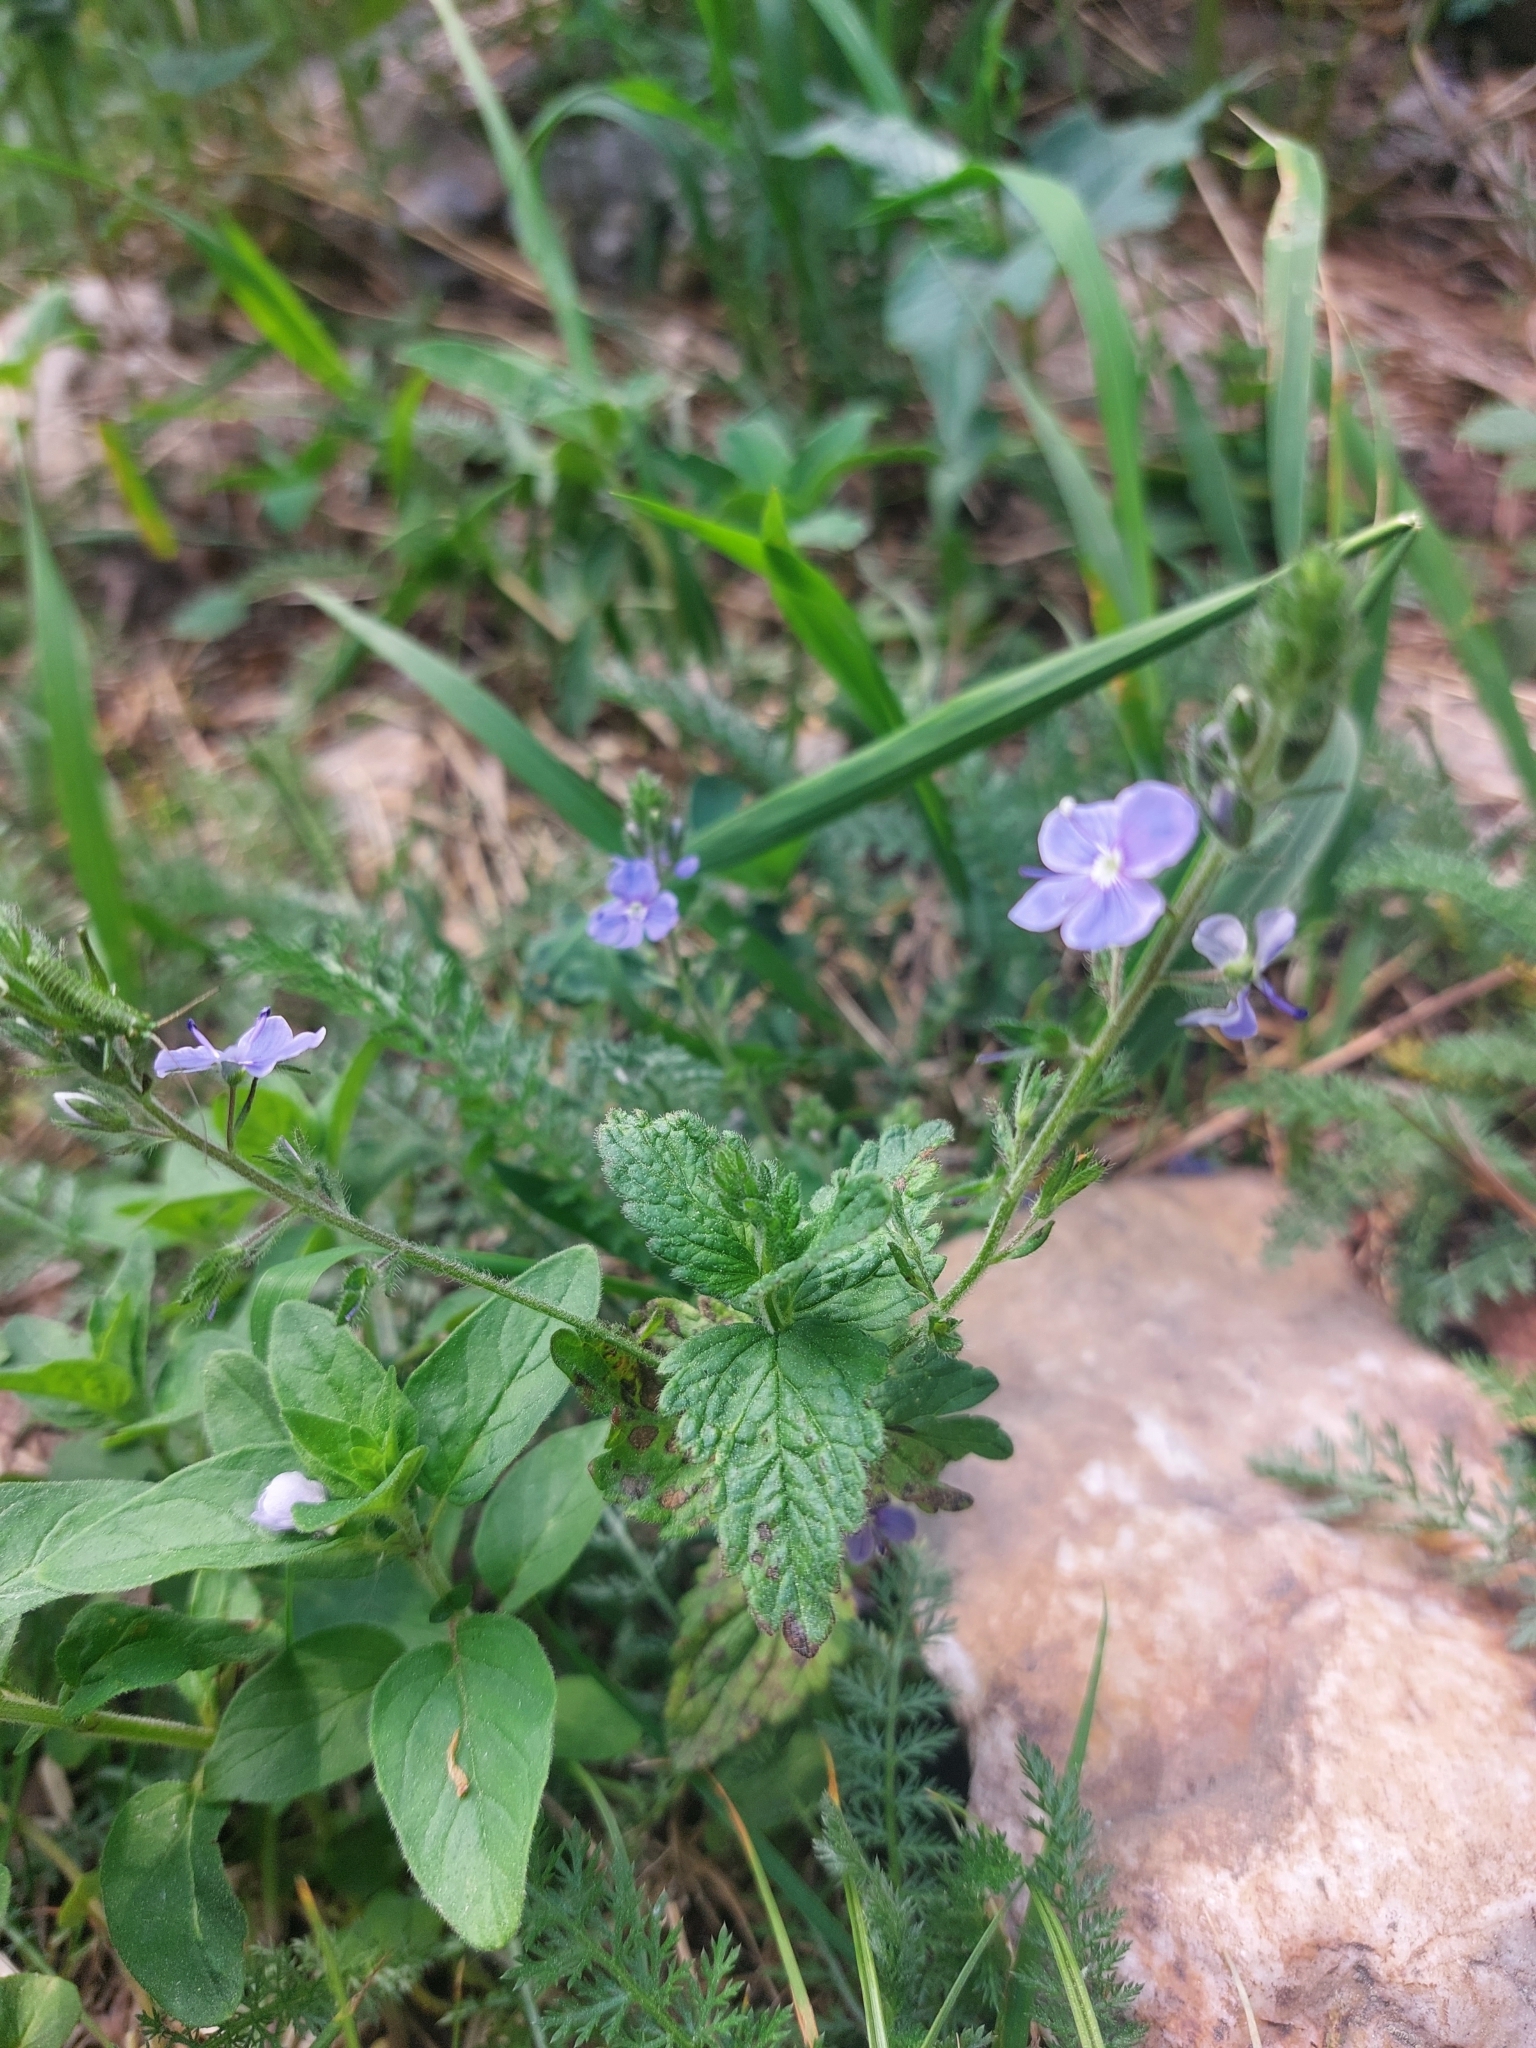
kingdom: Plantae
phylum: Tracheophyta
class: Magnoliopsida
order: Lamiales
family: Plantaginaceae
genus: Veronica
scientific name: Veronica chamaedrys
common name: Germander speedwell
